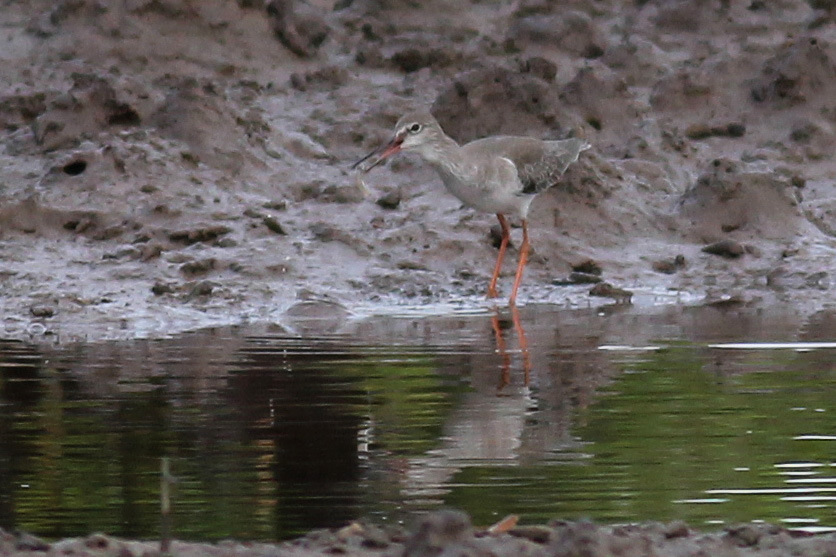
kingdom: Animalia
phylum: Chordata
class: Aves
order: Charadriiformes
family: Scolopacidae
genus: Tringa
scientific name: Tringa totanus
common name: Common redshank
